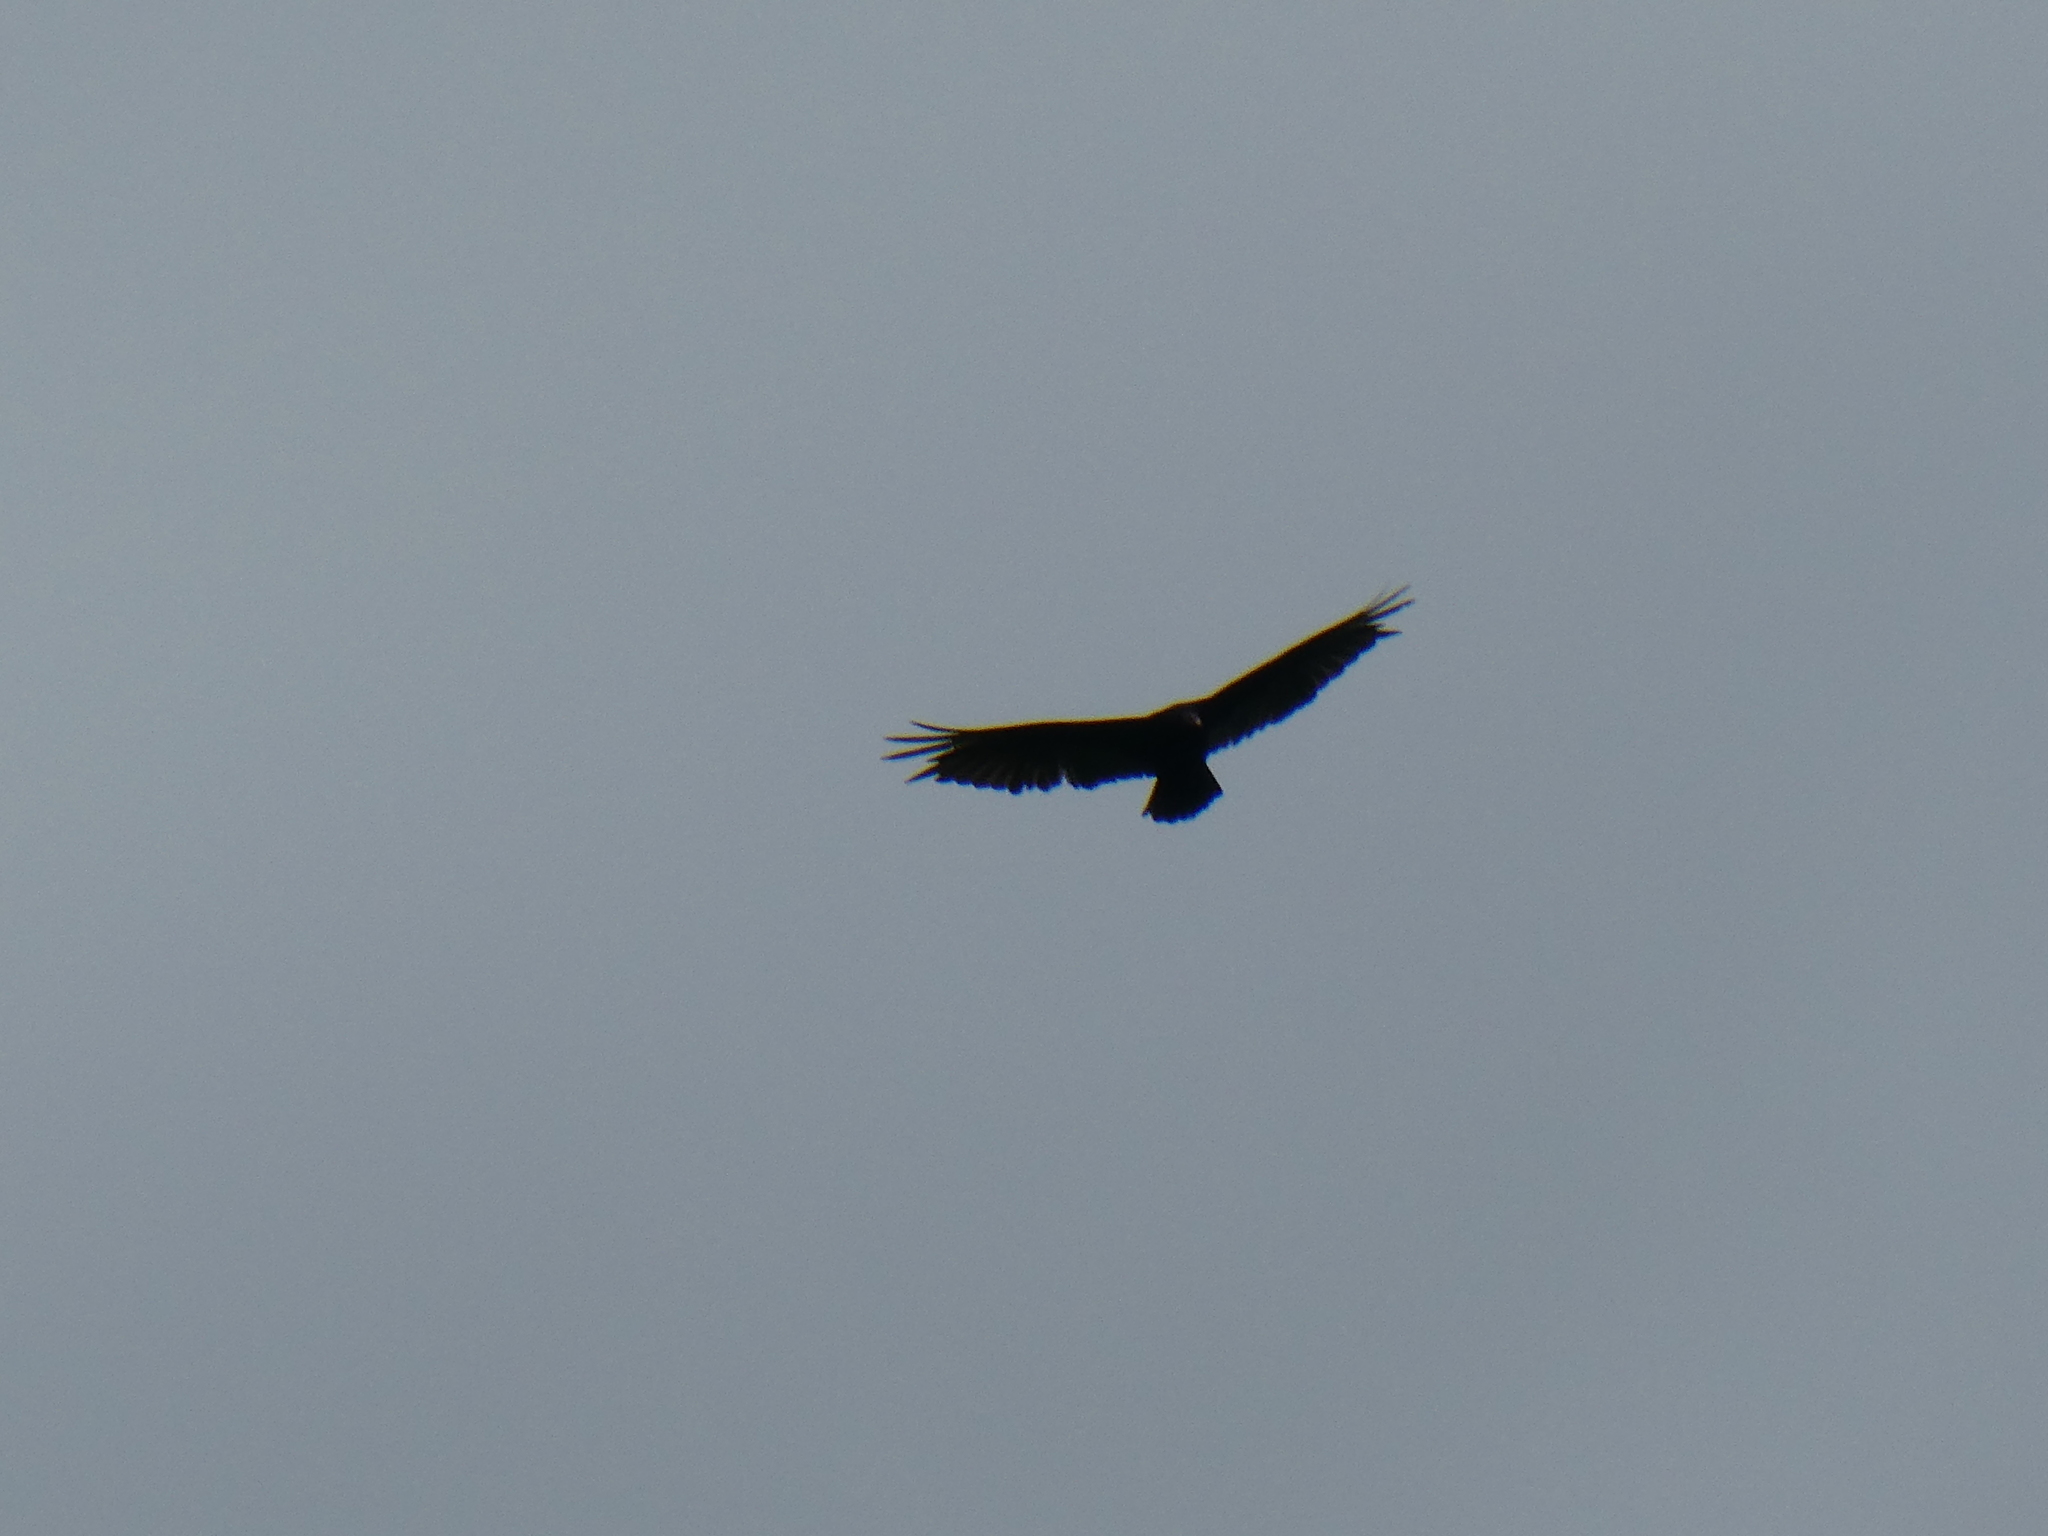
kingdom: Animalia
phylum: Chordata
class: Aves
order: Accipitriformes
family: Cathartidae
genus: Cathartes
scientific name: Cathartes aura
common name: Turkey vulture
